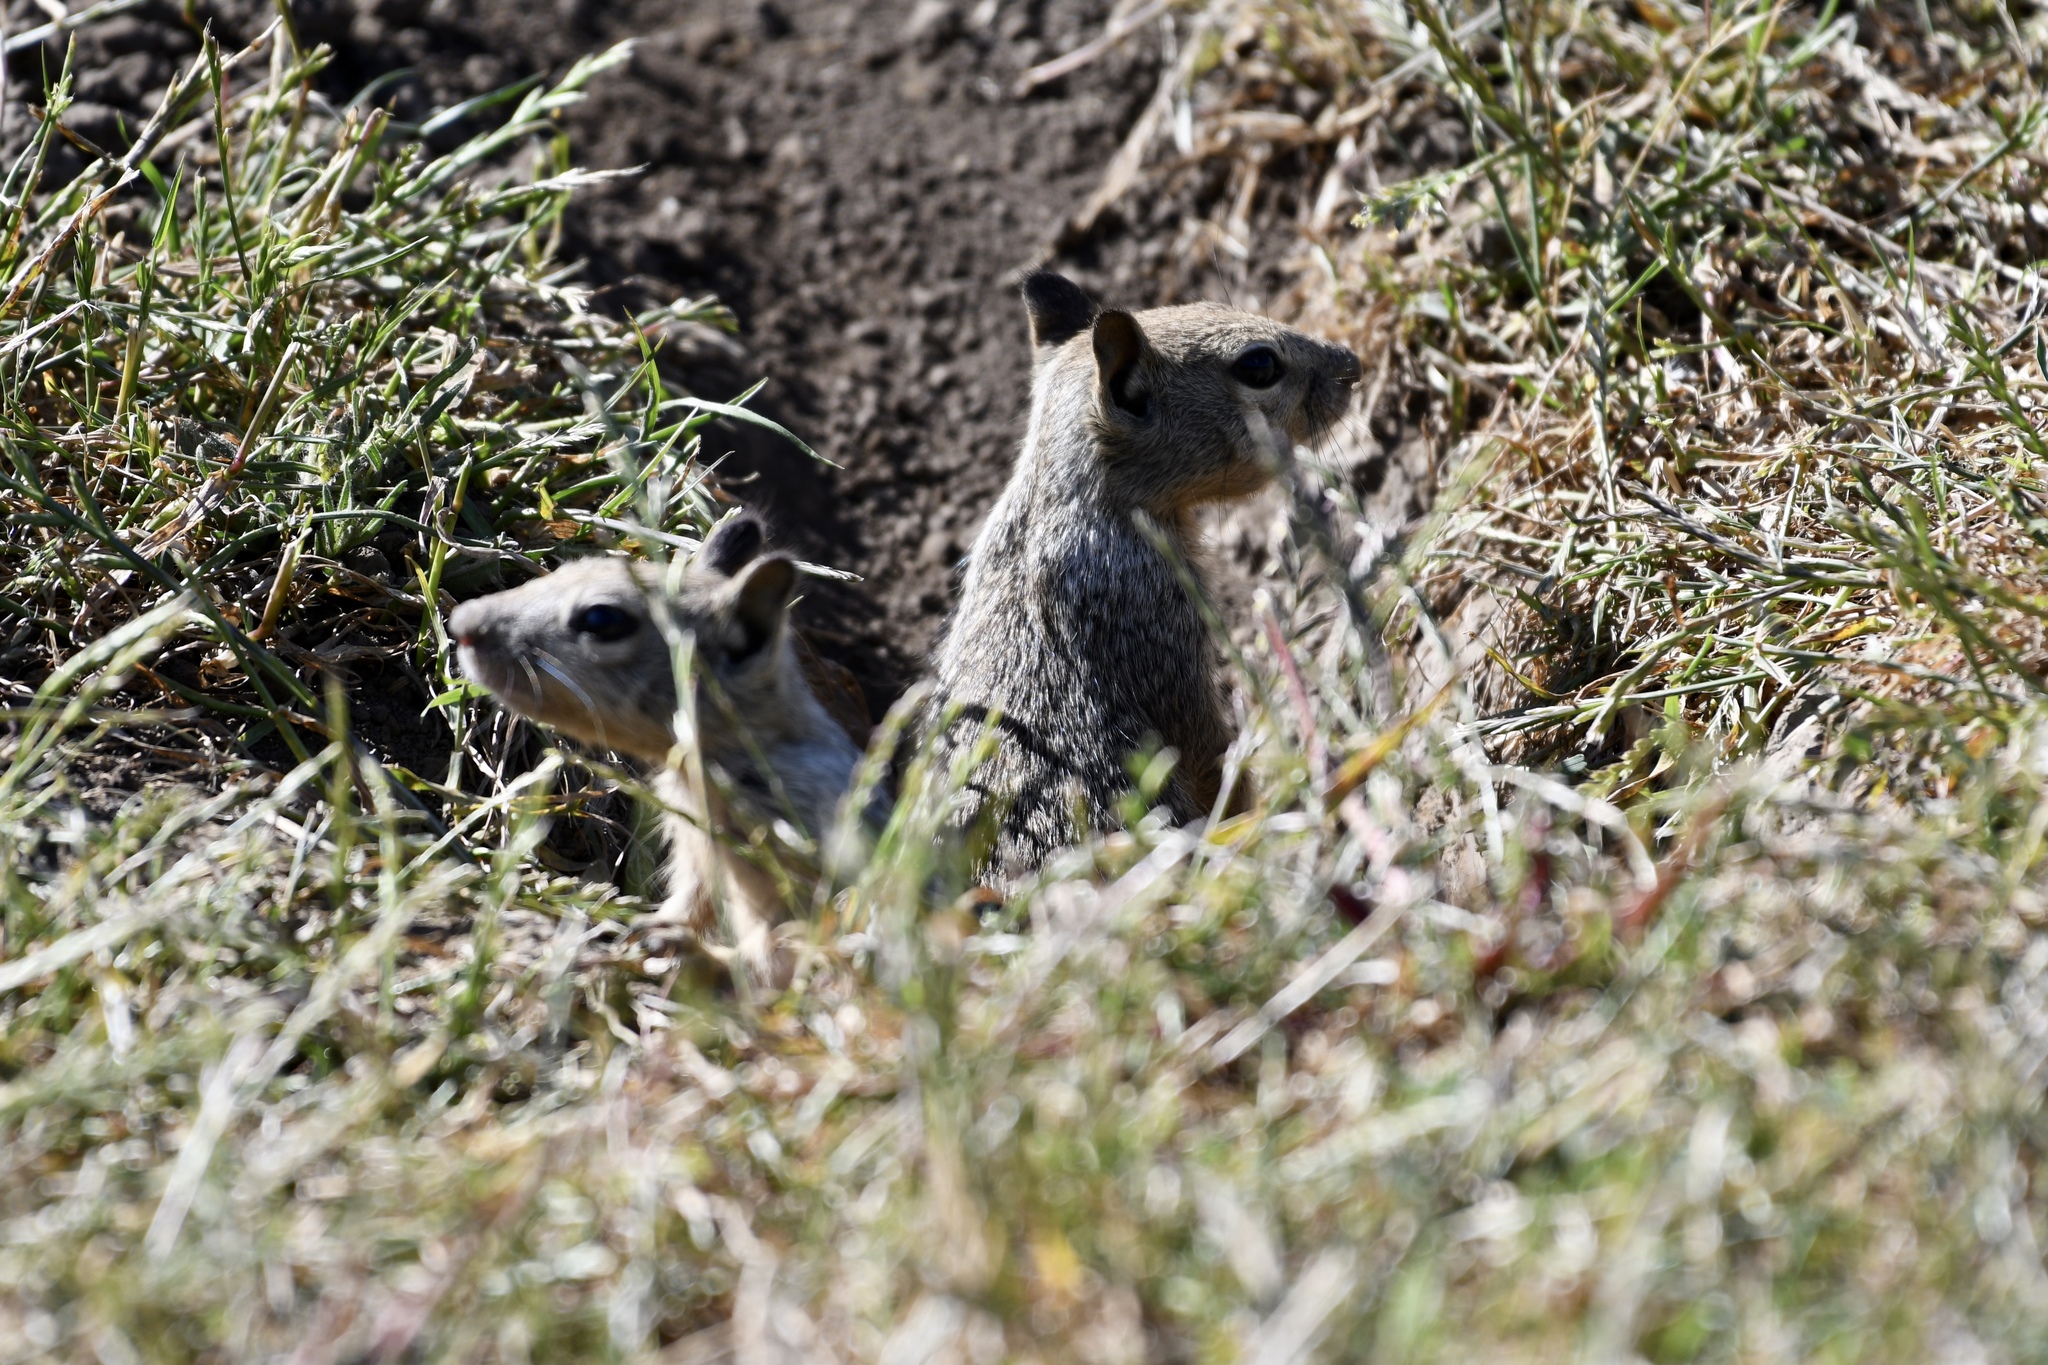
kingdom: Animalia
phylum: Chordata
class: Mammalia
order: Rodentia
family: Sciuridae
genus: Otospermophilus
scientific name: Otospermophilus beecheyi
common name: California ground squirrel
